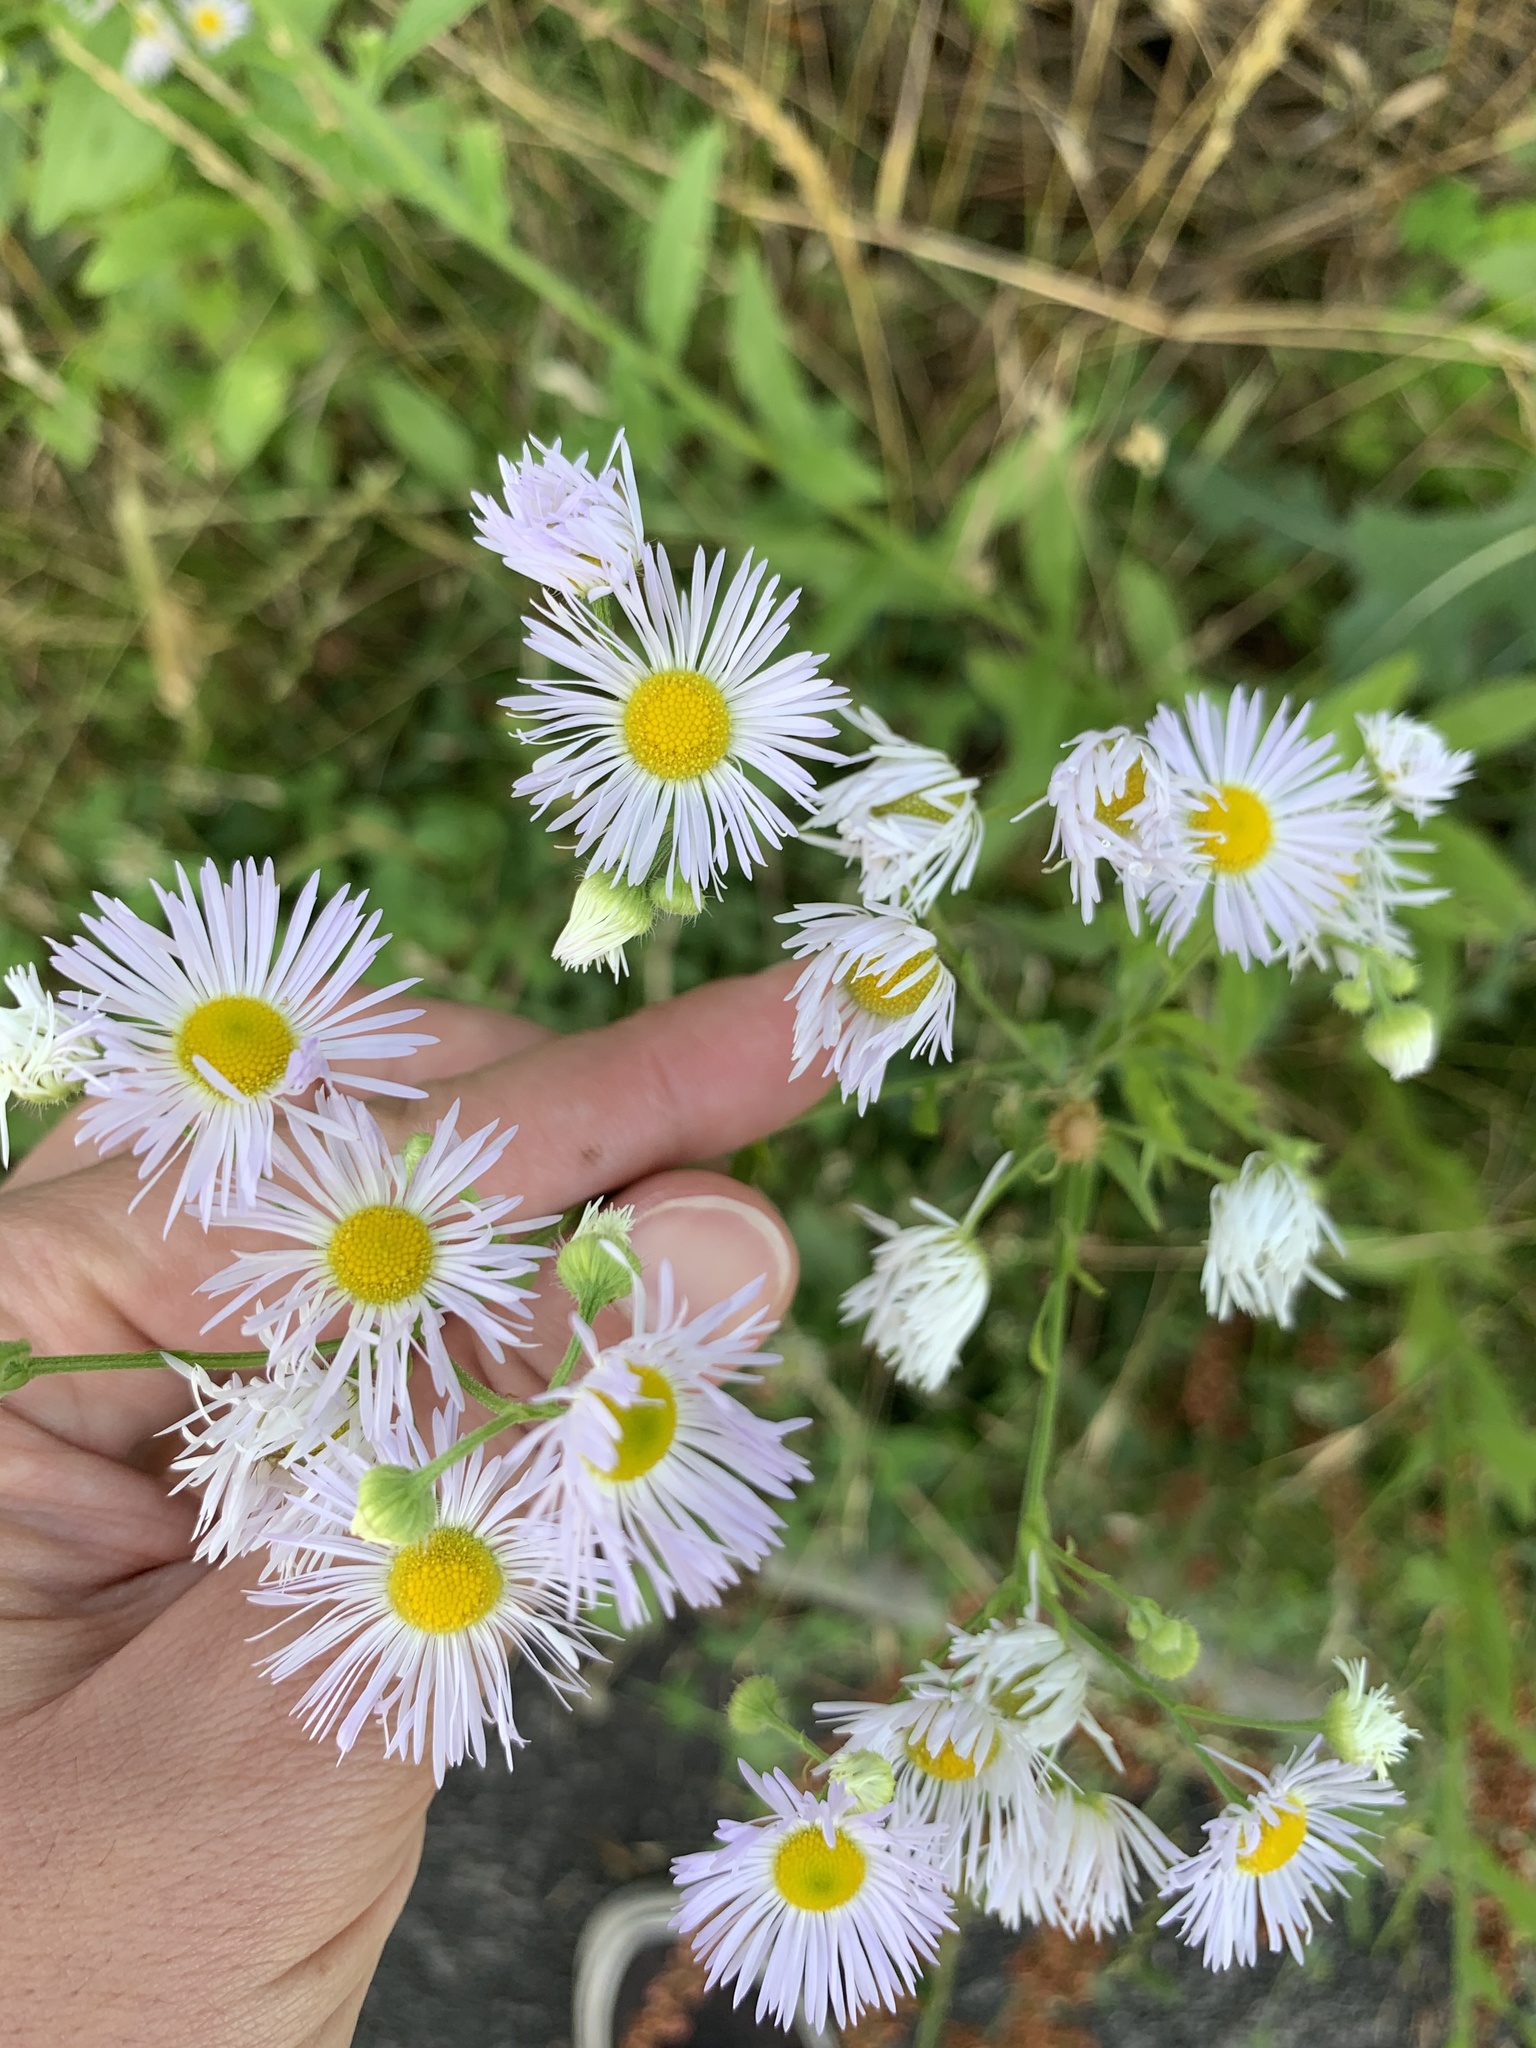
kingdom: Plantae
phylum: Tracheophyta
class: Magnoliopsida
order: Asterales
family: Asteraceae
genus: Erigeron
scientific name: Erigeron annuus
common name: Tall fleabane
